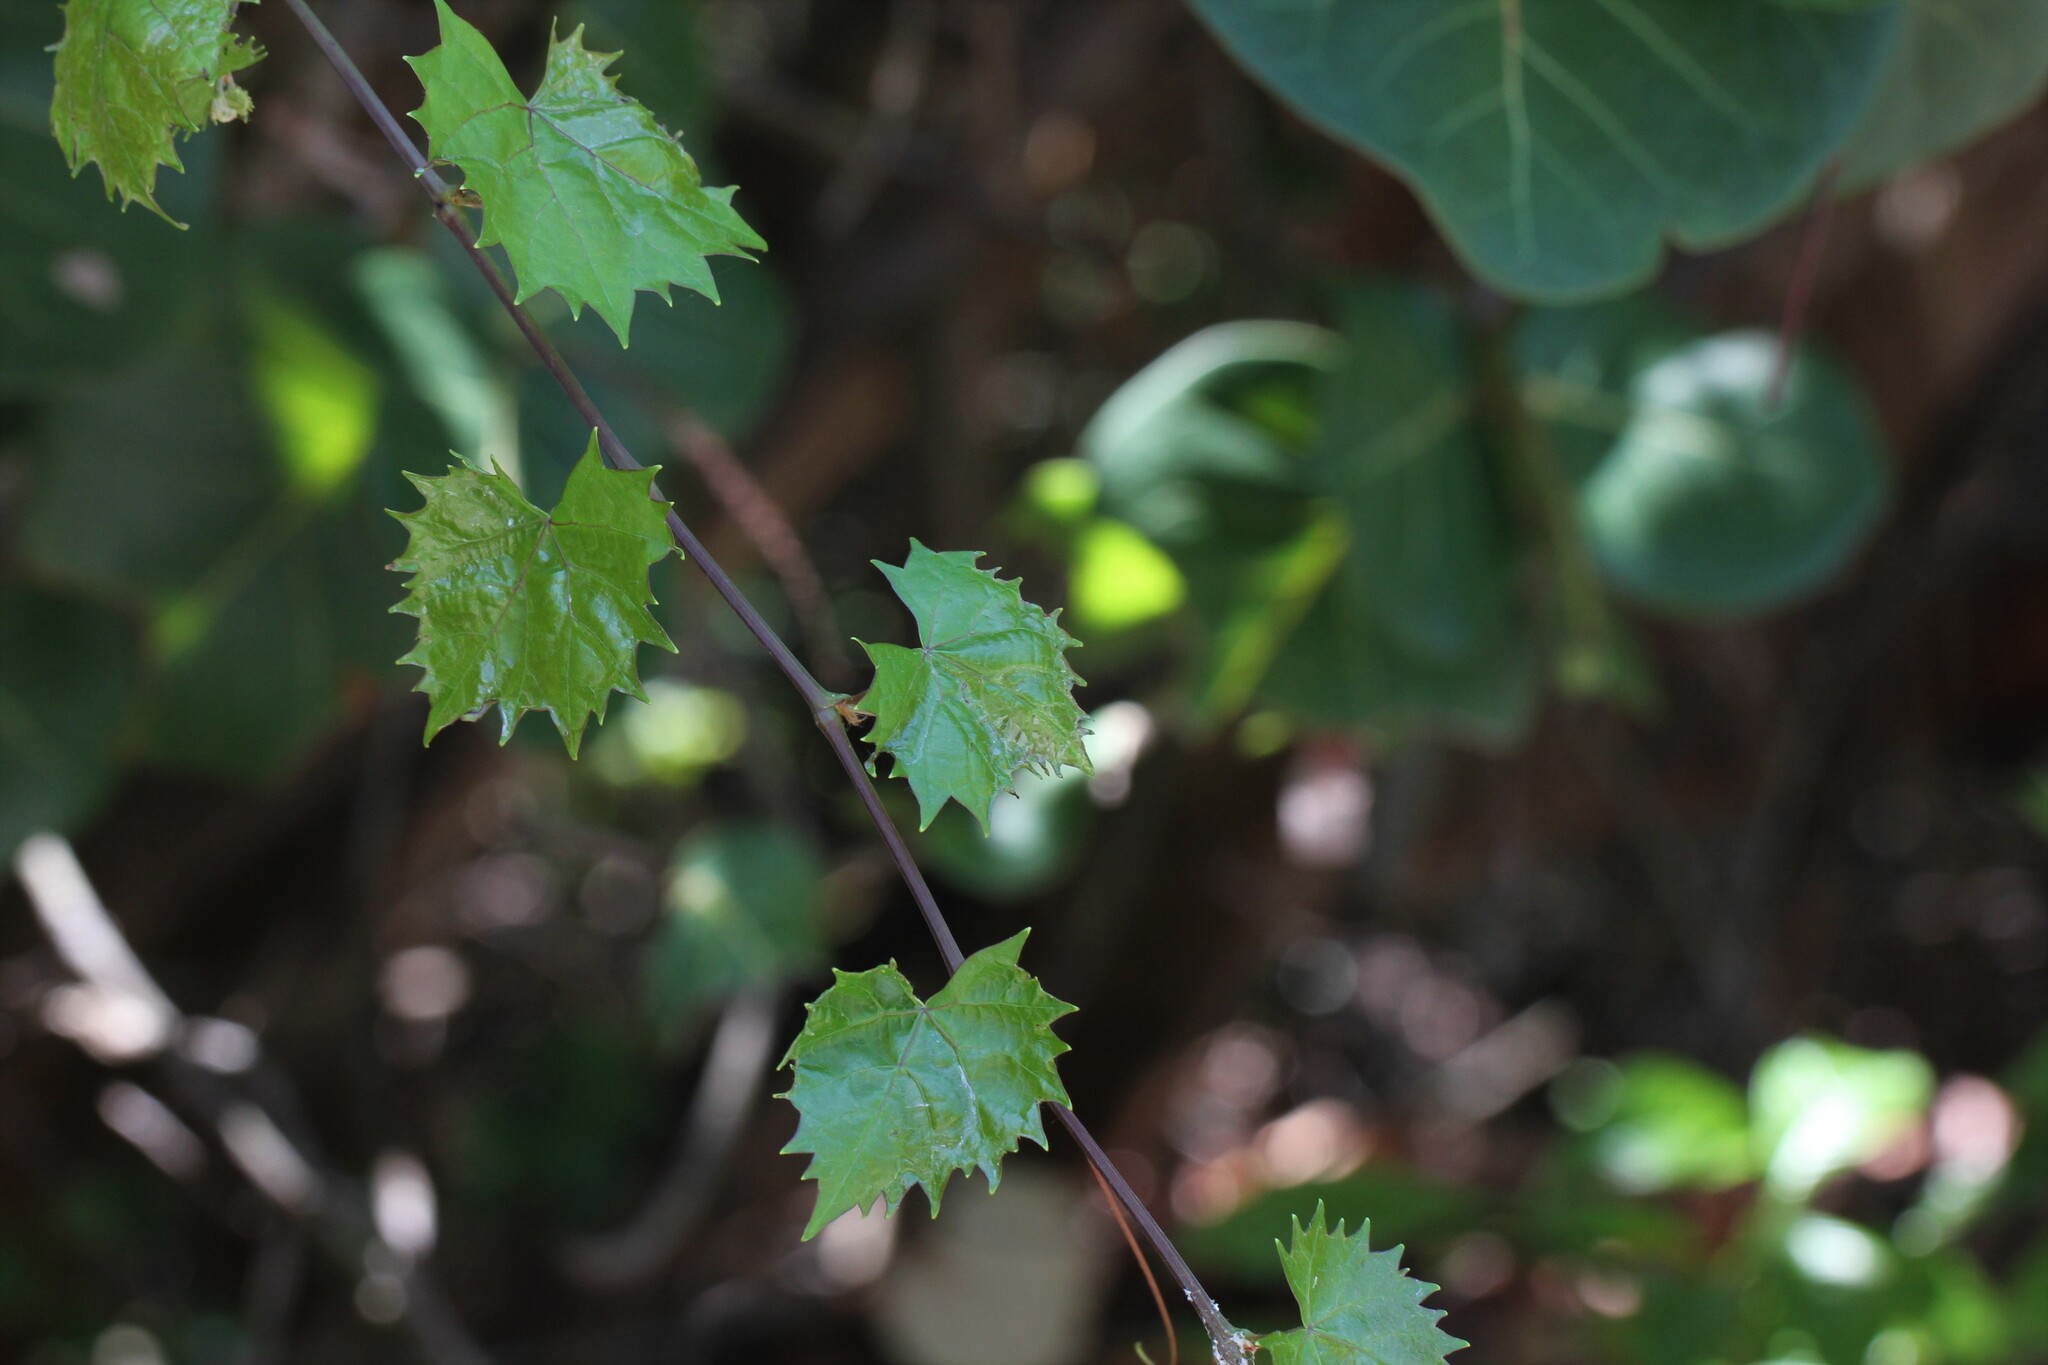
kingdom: Plantae
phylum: Tracheophyta
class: Magnoliopsida
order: Vitales
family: Vitaceae
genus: Vitis
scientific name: Vitis rotundifolia
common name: Muscadine grape
